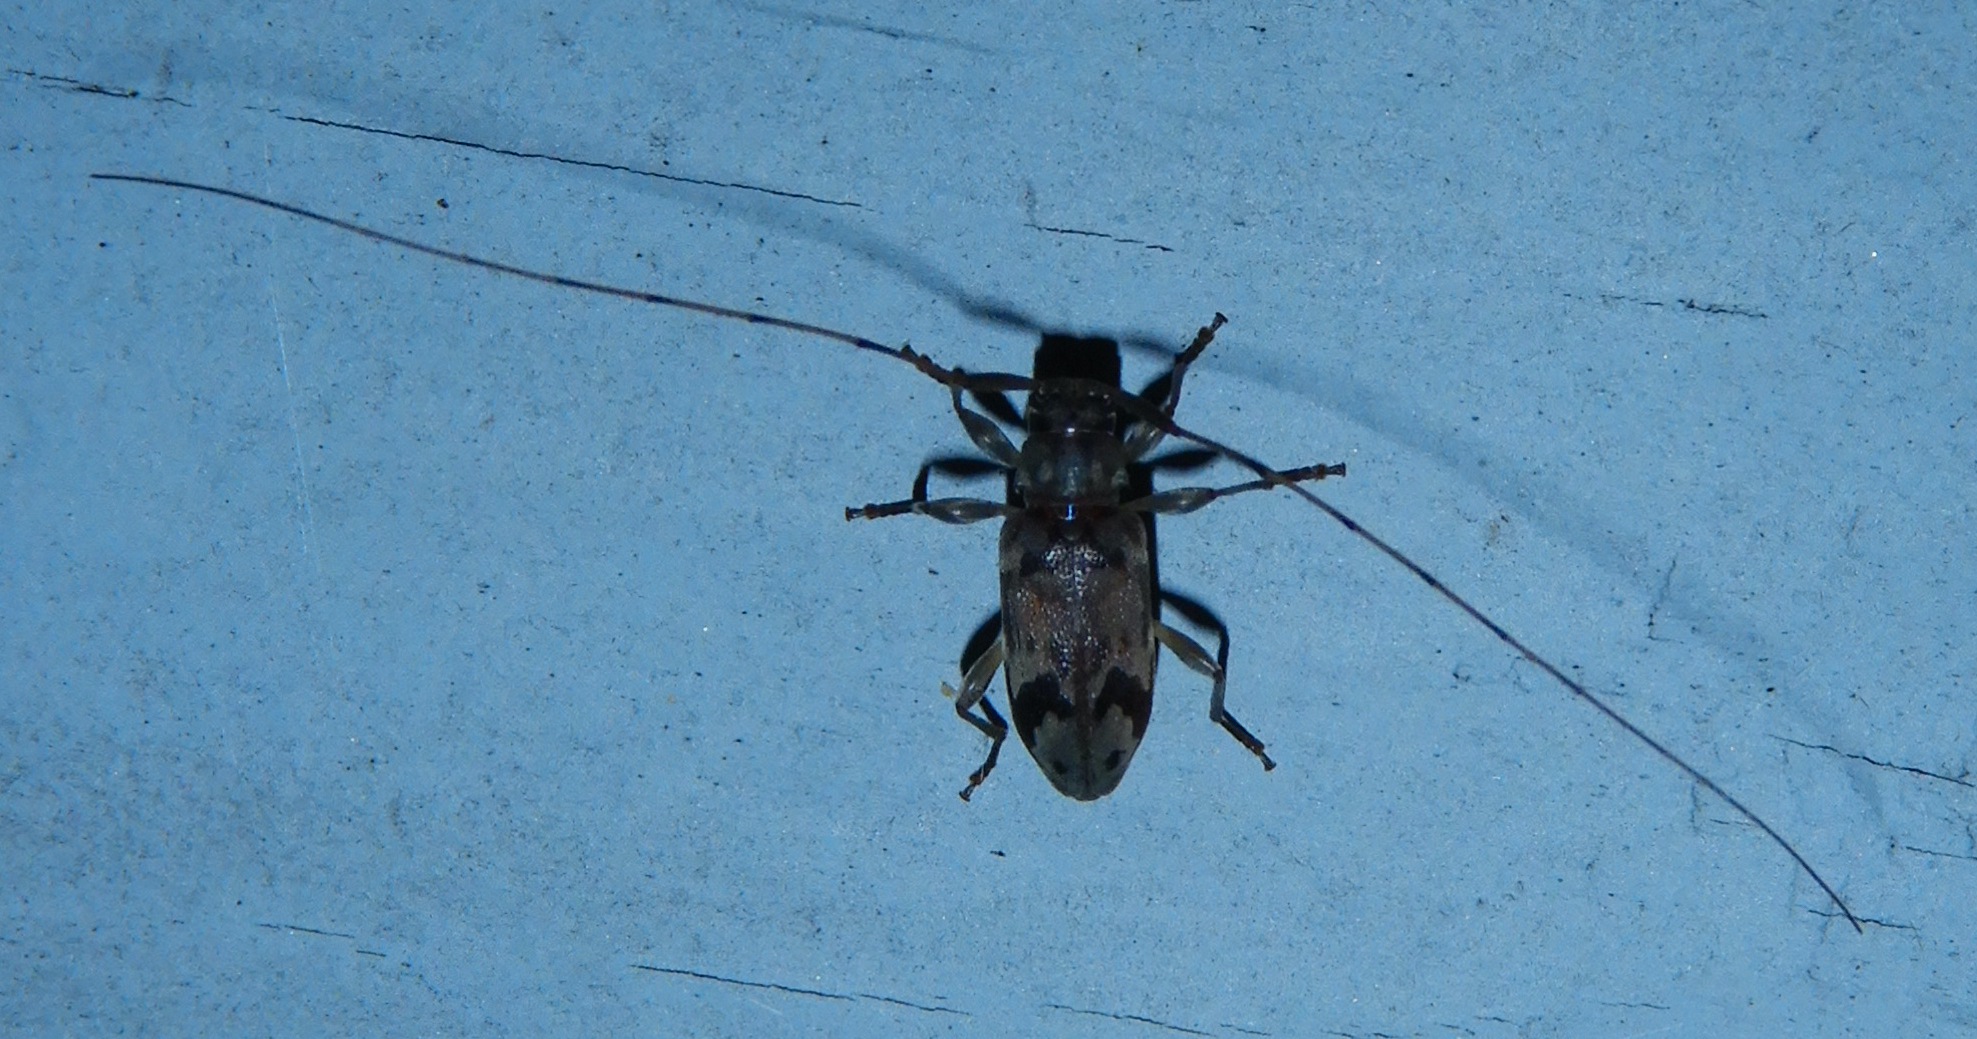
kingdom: Animalia
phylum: Arthropoda
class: Insecta
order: Coleoptera
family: Cerambycidae
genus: Urgleptes
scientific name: Urgleptes signatus
